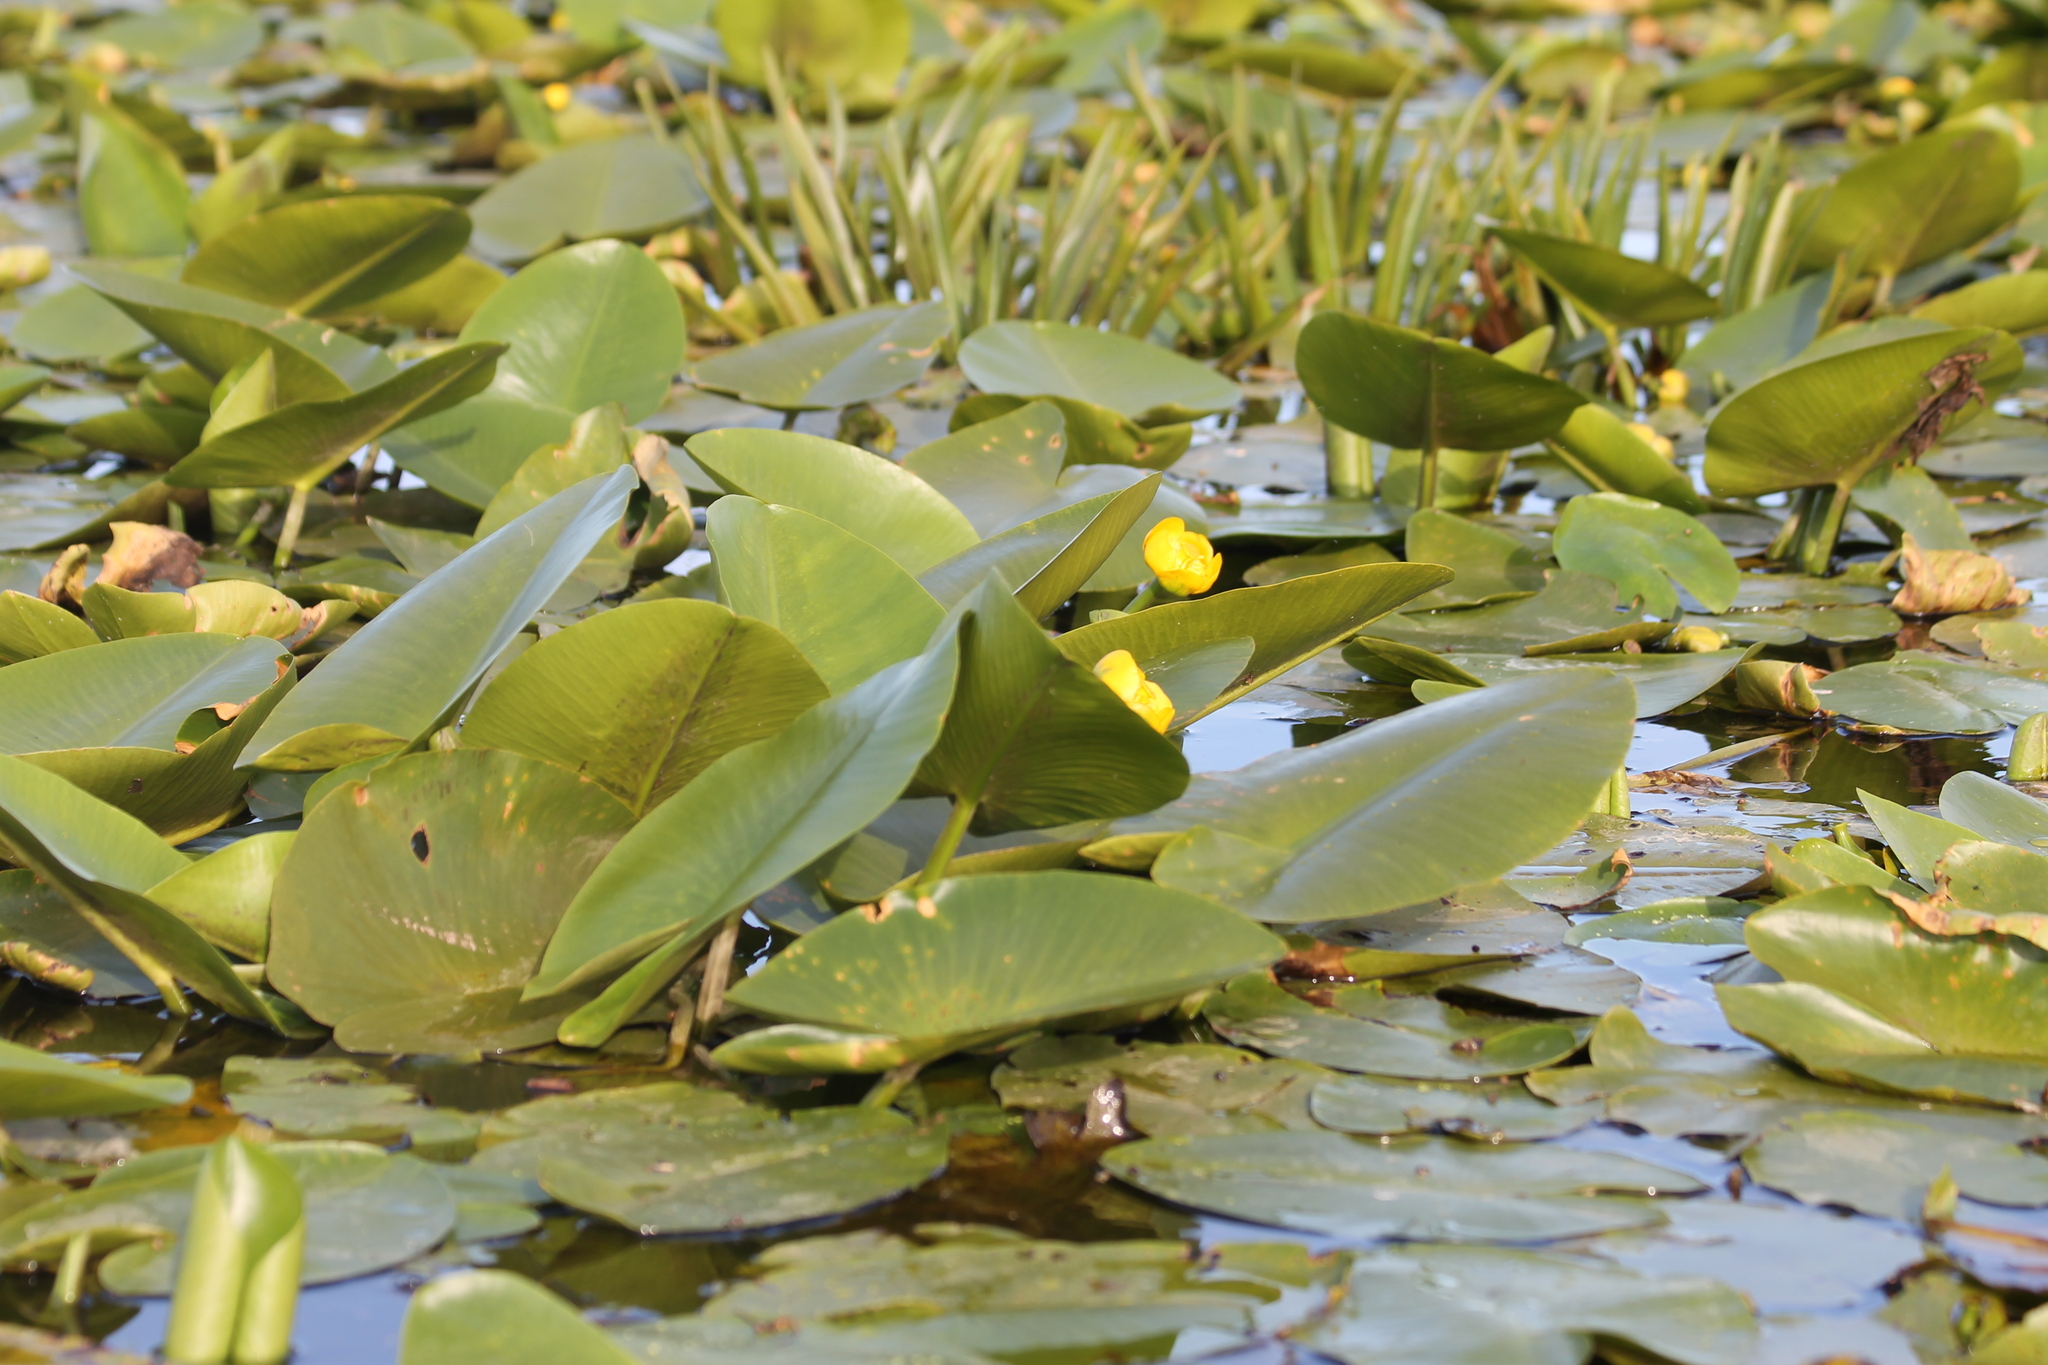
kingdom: Plantae
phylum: Tracheophyta
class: Magnoliopsida
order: Nymphaeales
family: Nymphaeaceae
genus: Nuphar
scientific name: Nuphar lutea
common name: Yellow water-lily
